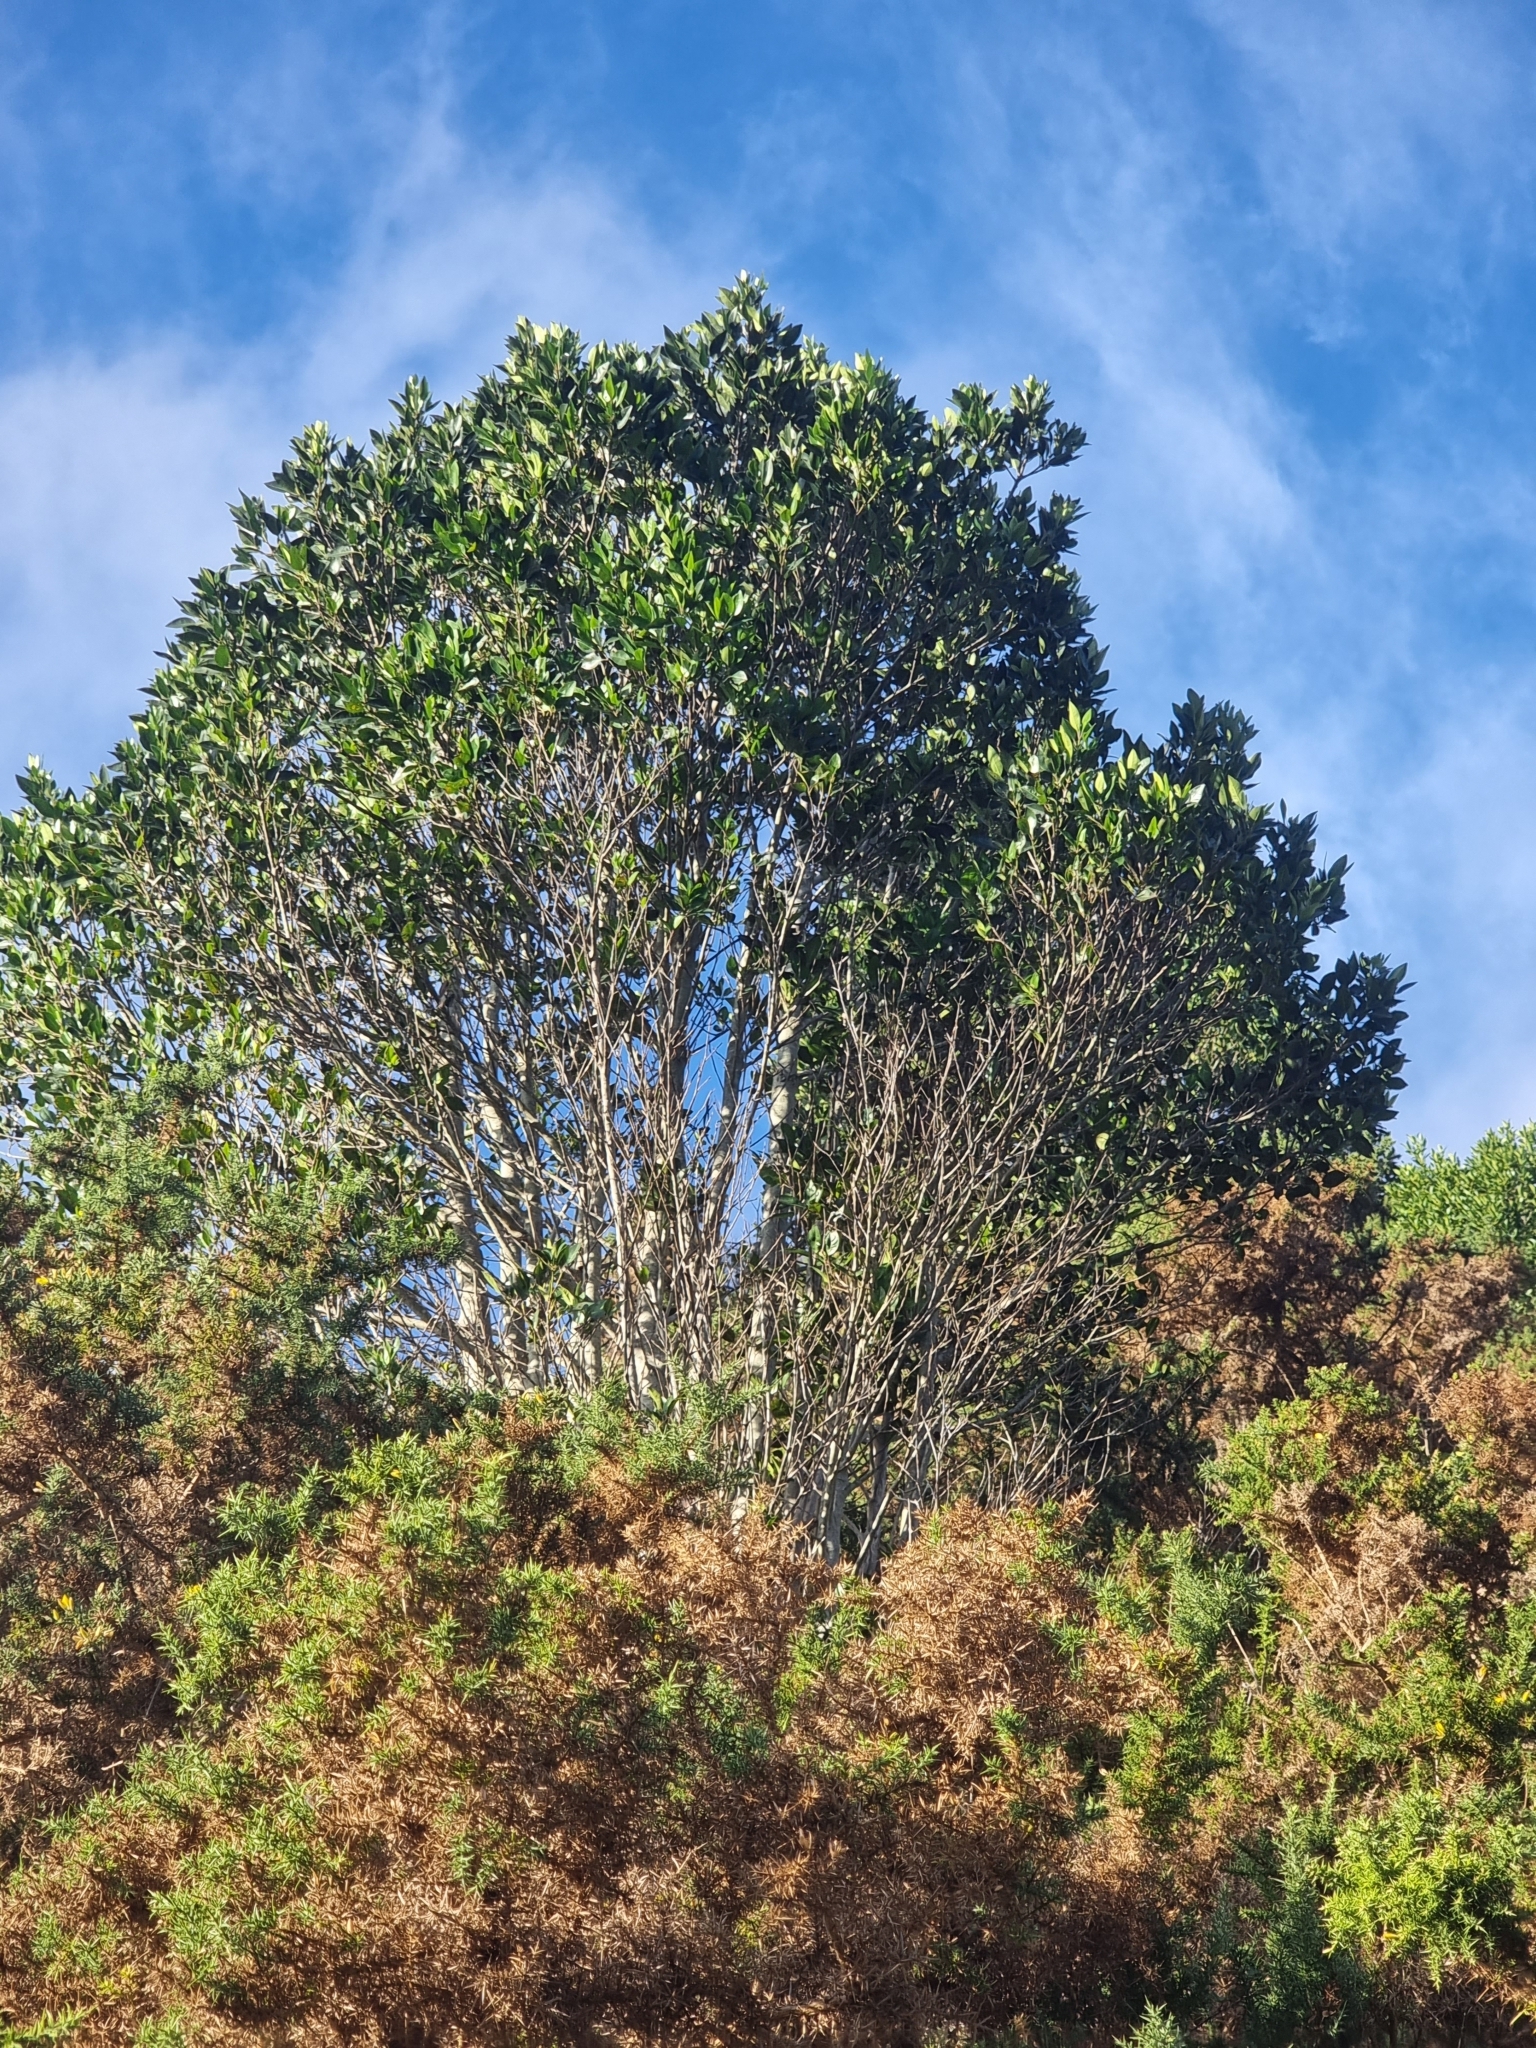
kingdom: Plantae
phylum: Tracheophyta
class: Magnoliopsida
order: Aquifoliales
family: Aquifoliaceae
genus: Ilex
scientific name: Ilex canariensis
